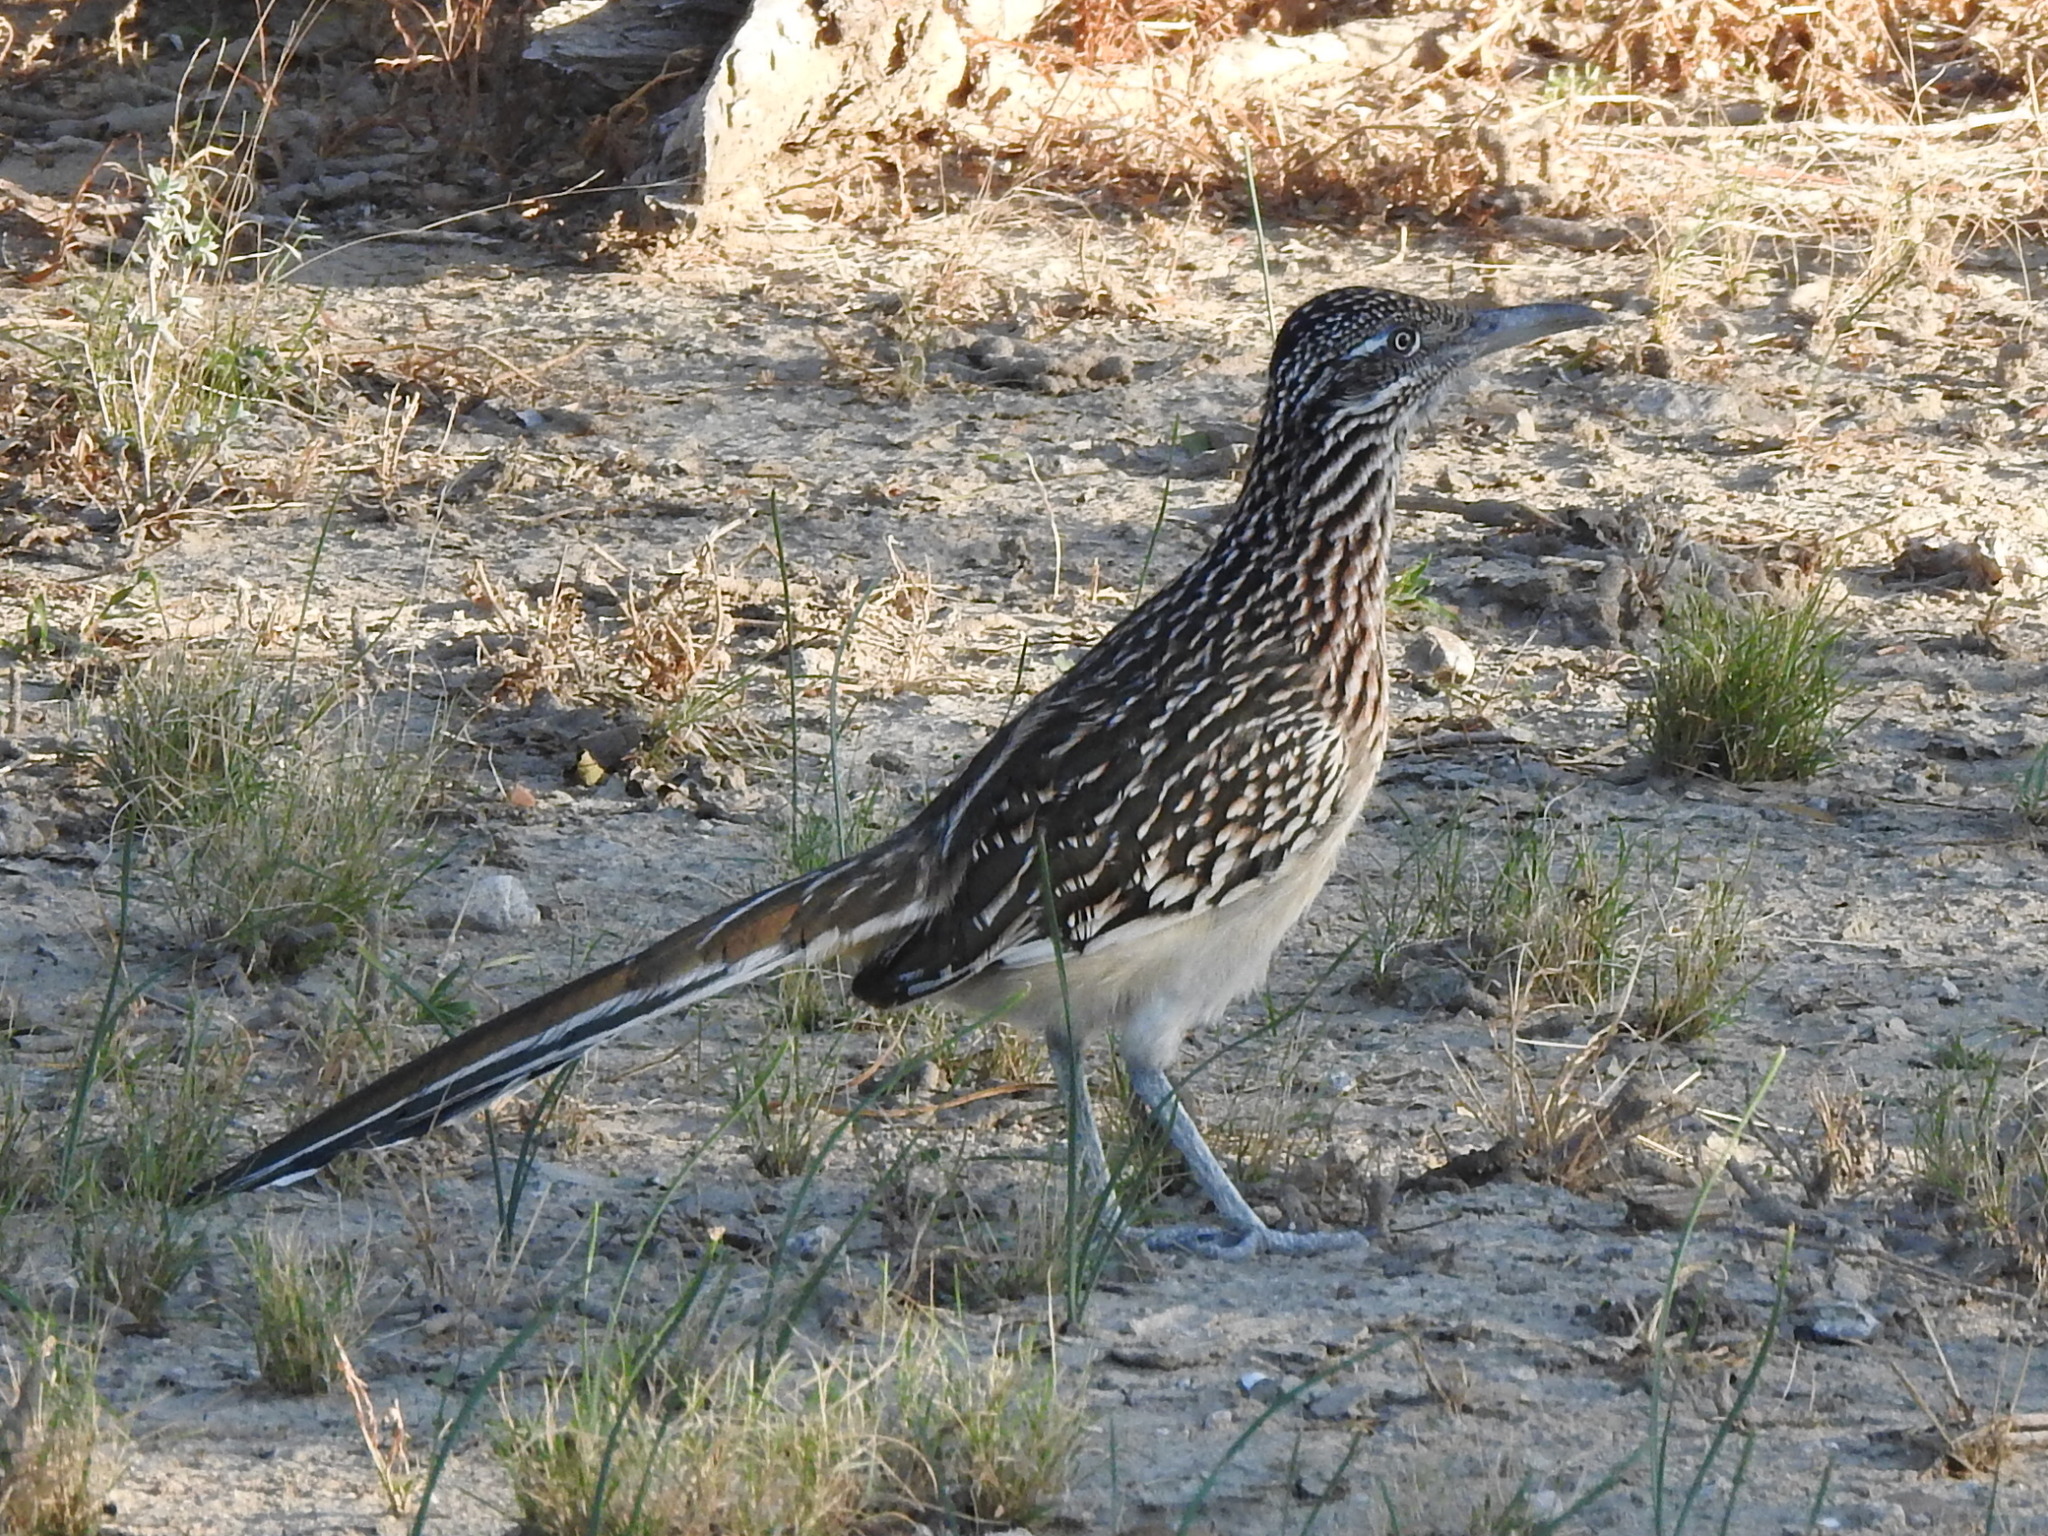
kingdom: Animalia
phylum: Chordata
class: Aves
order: Cuculiformes
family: Cuculidae
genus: Geococcyx
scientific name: Geococcyx californianus
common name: Greater roadrunner
